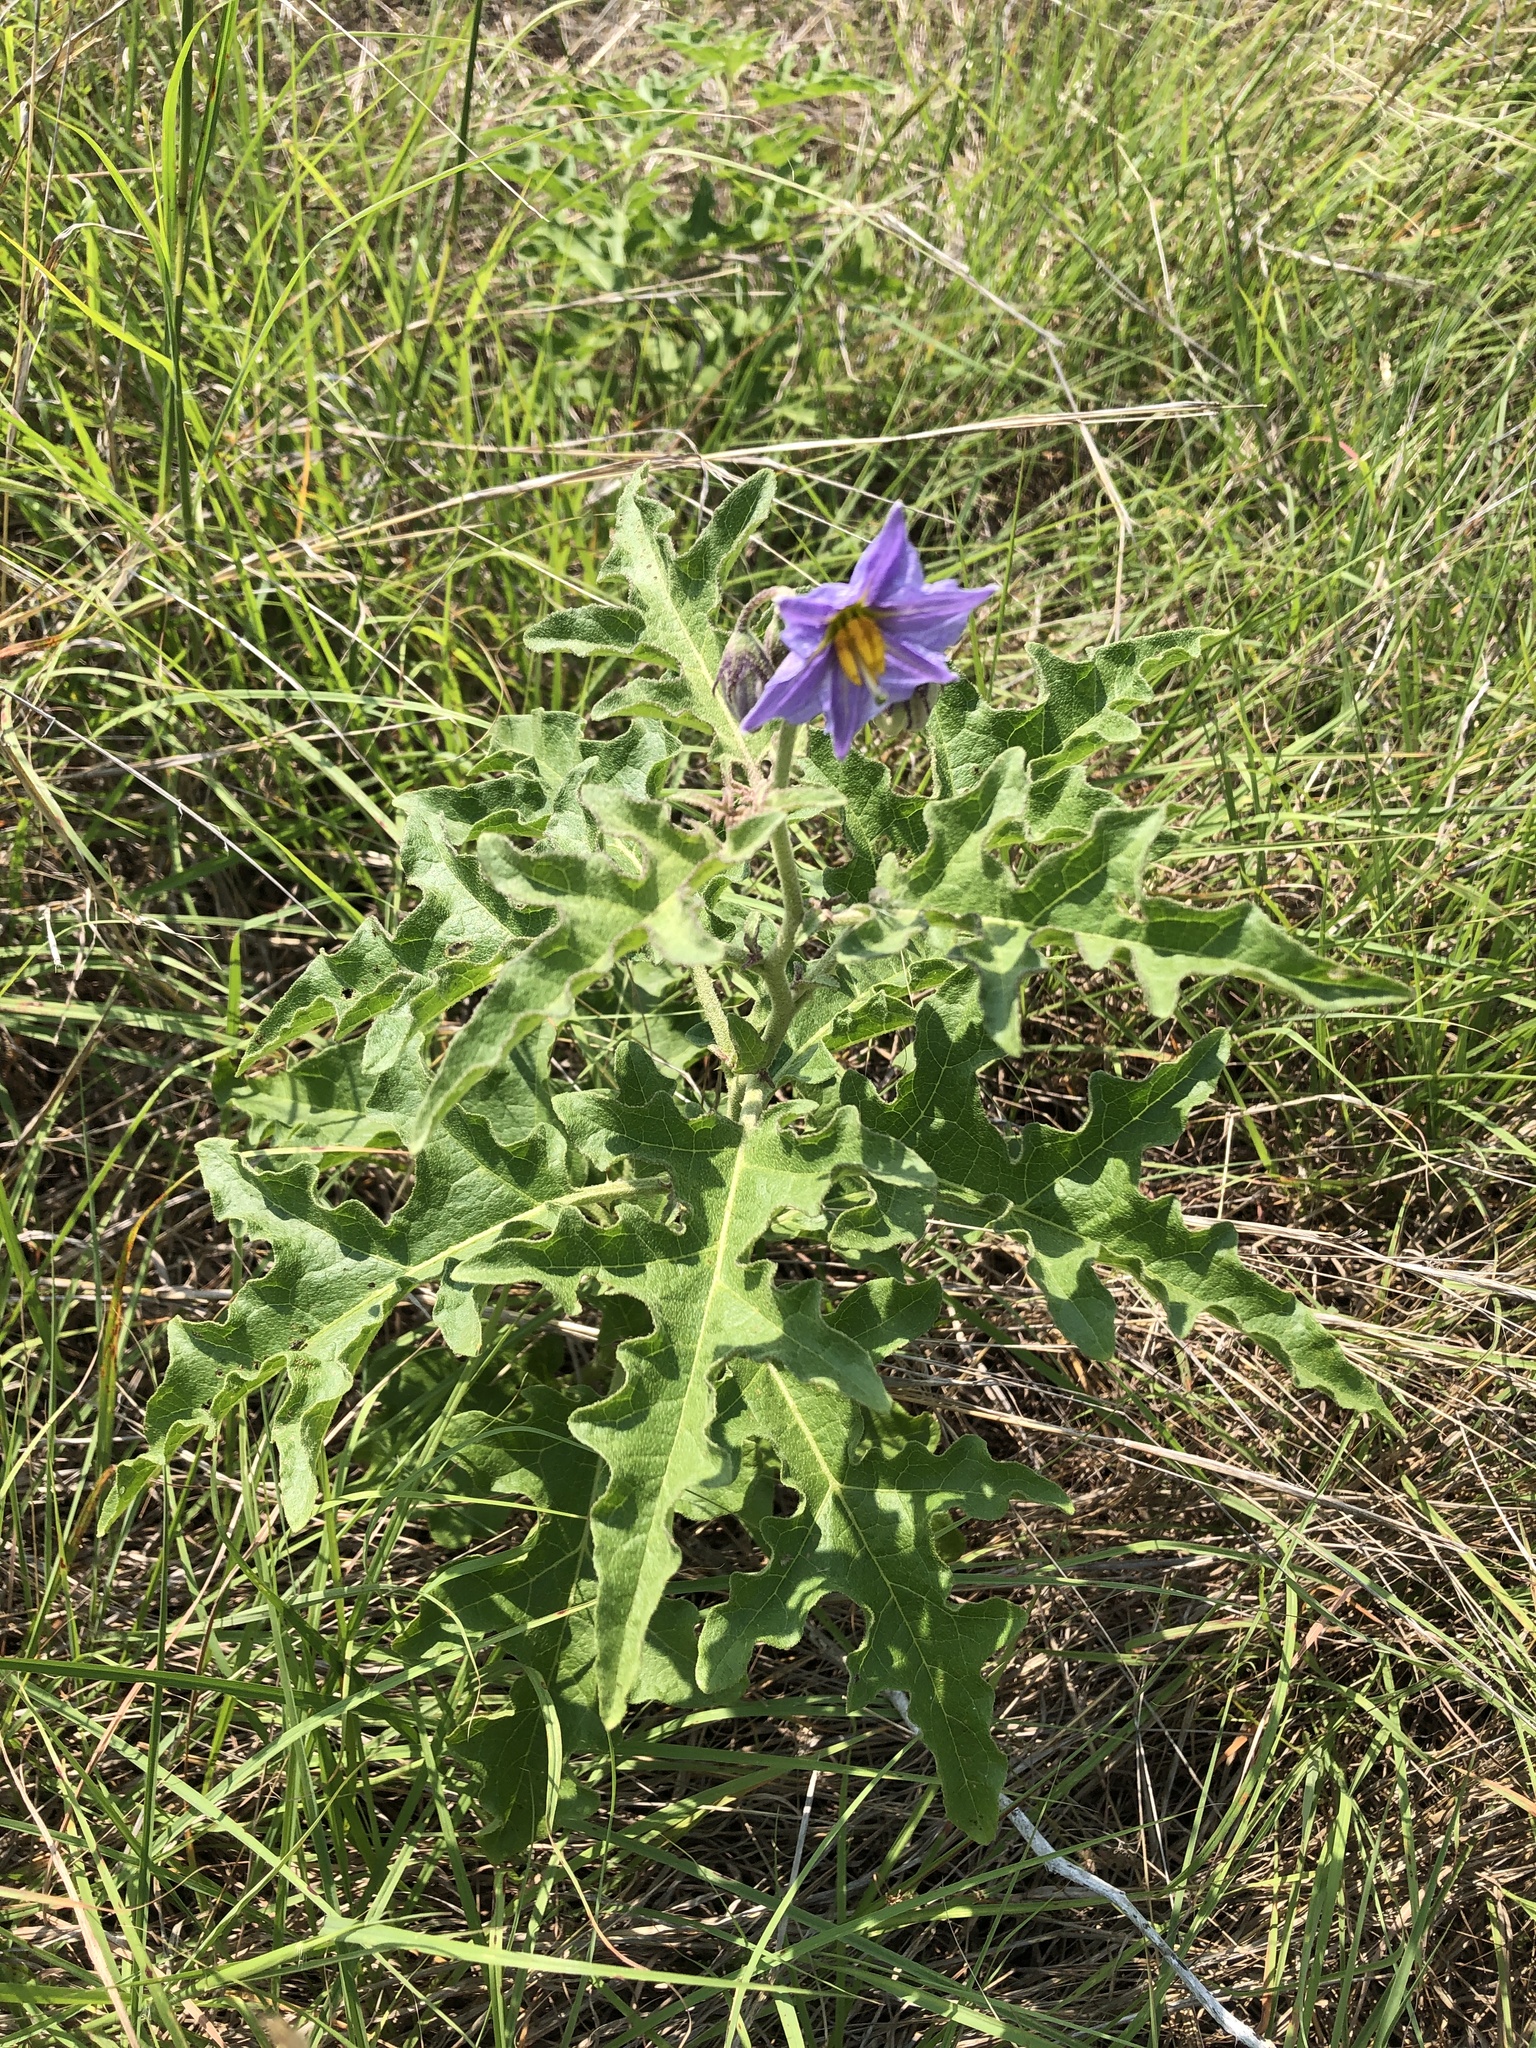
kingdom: Plantae
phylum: Tracheophyta
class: Magnoliopsida
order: Solanales
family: Solanaceae
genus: Solanum
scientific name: Solanum dimidiatum
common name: Carolina horse-nettle
